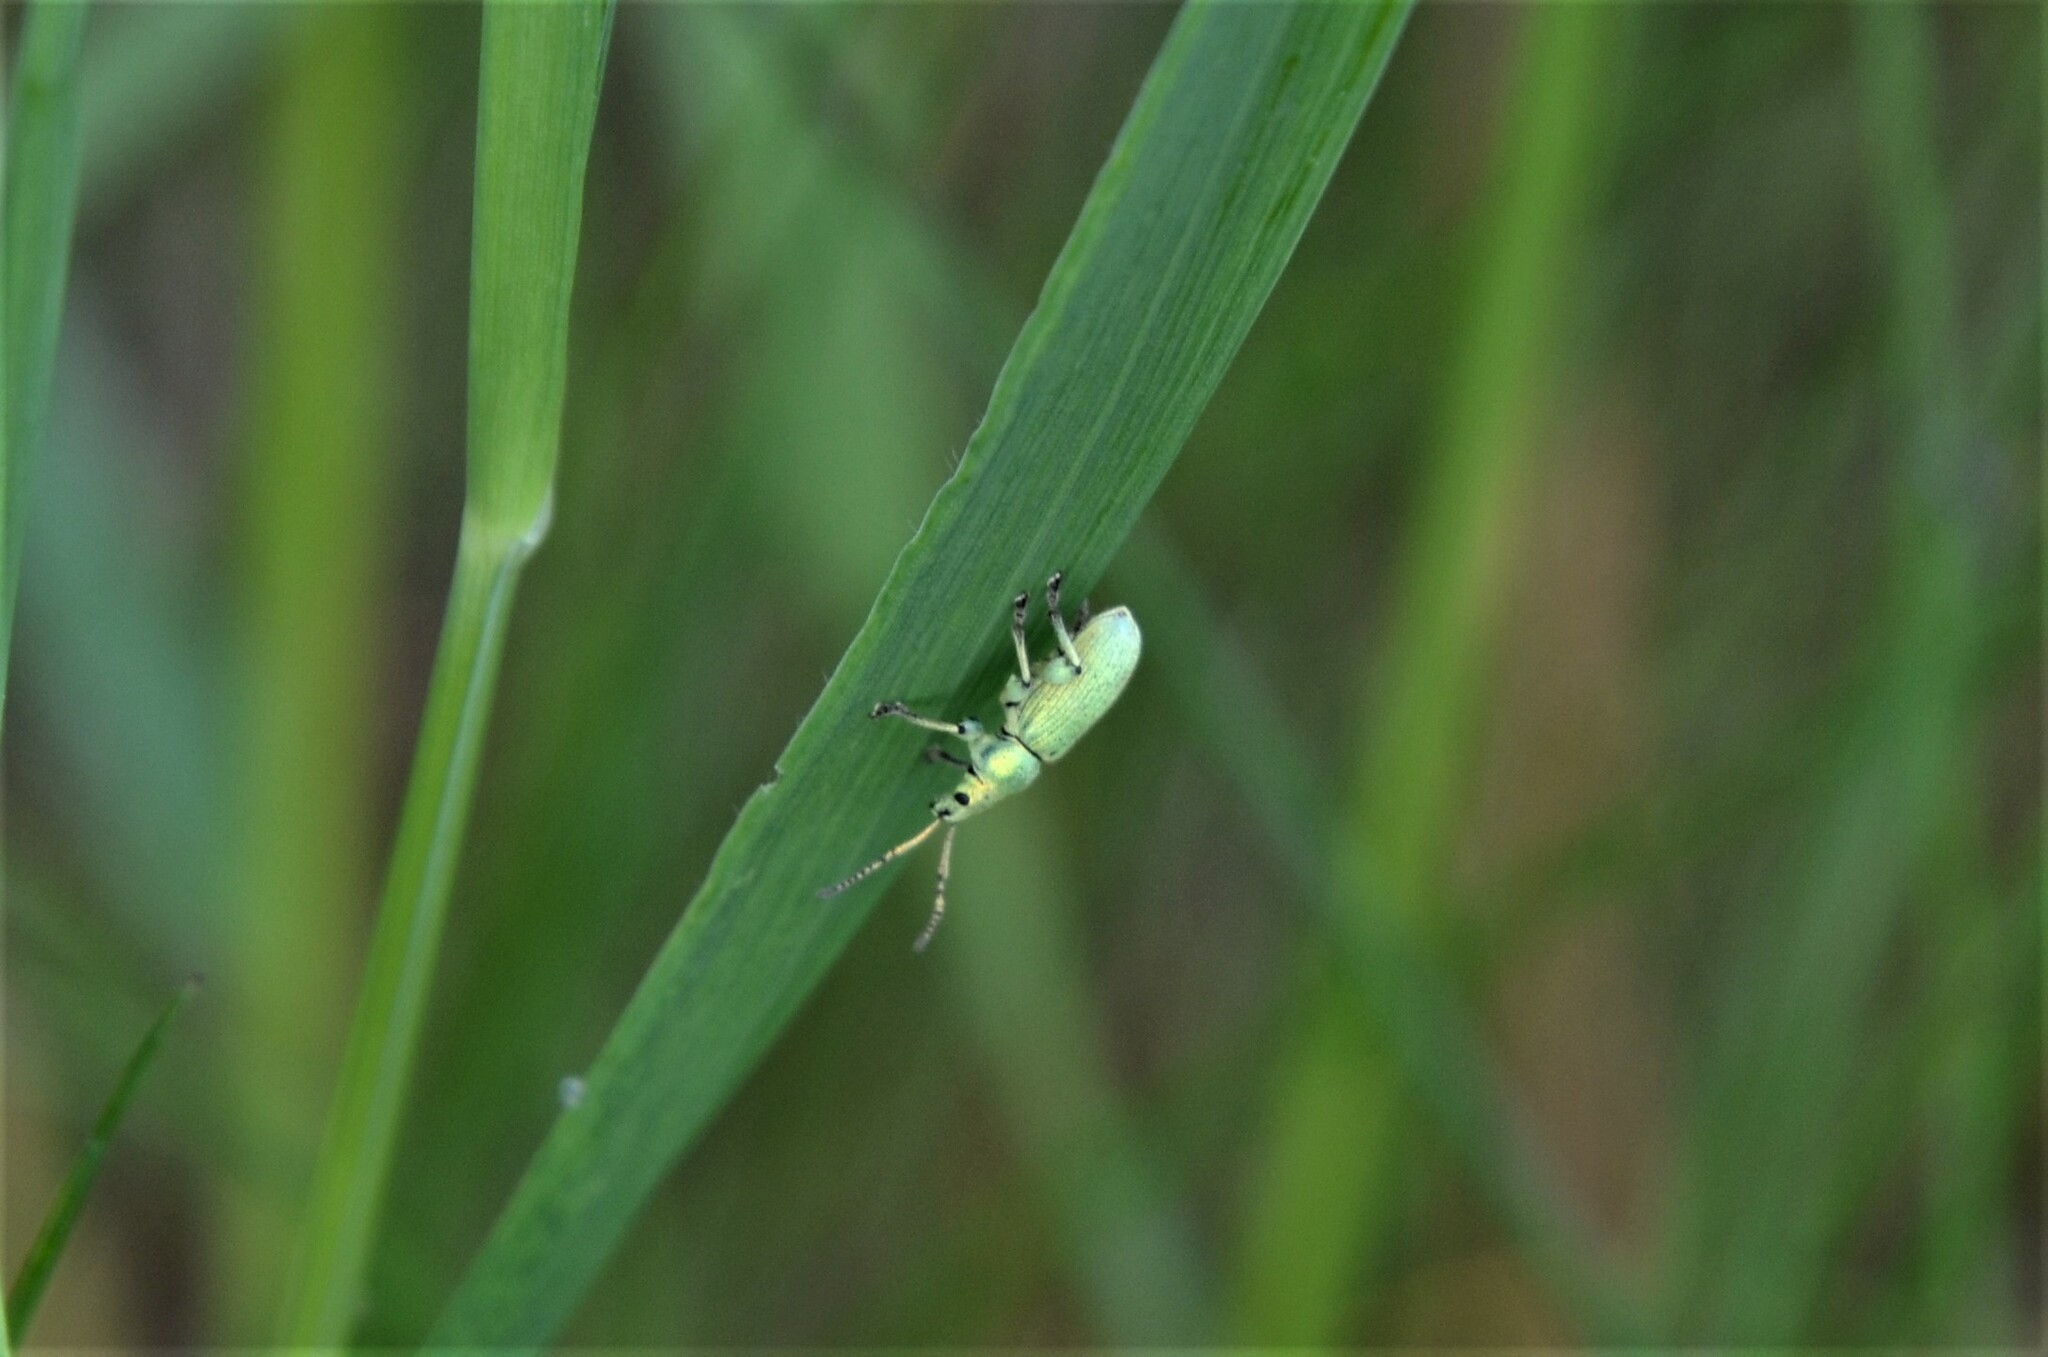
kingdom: Animalia
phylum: Arthropoda
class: Insecta
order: Coleoptera
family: Curculionidae
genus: Phyllobius
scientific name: Phyllobius maculicornis
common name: Green leaf weevil
